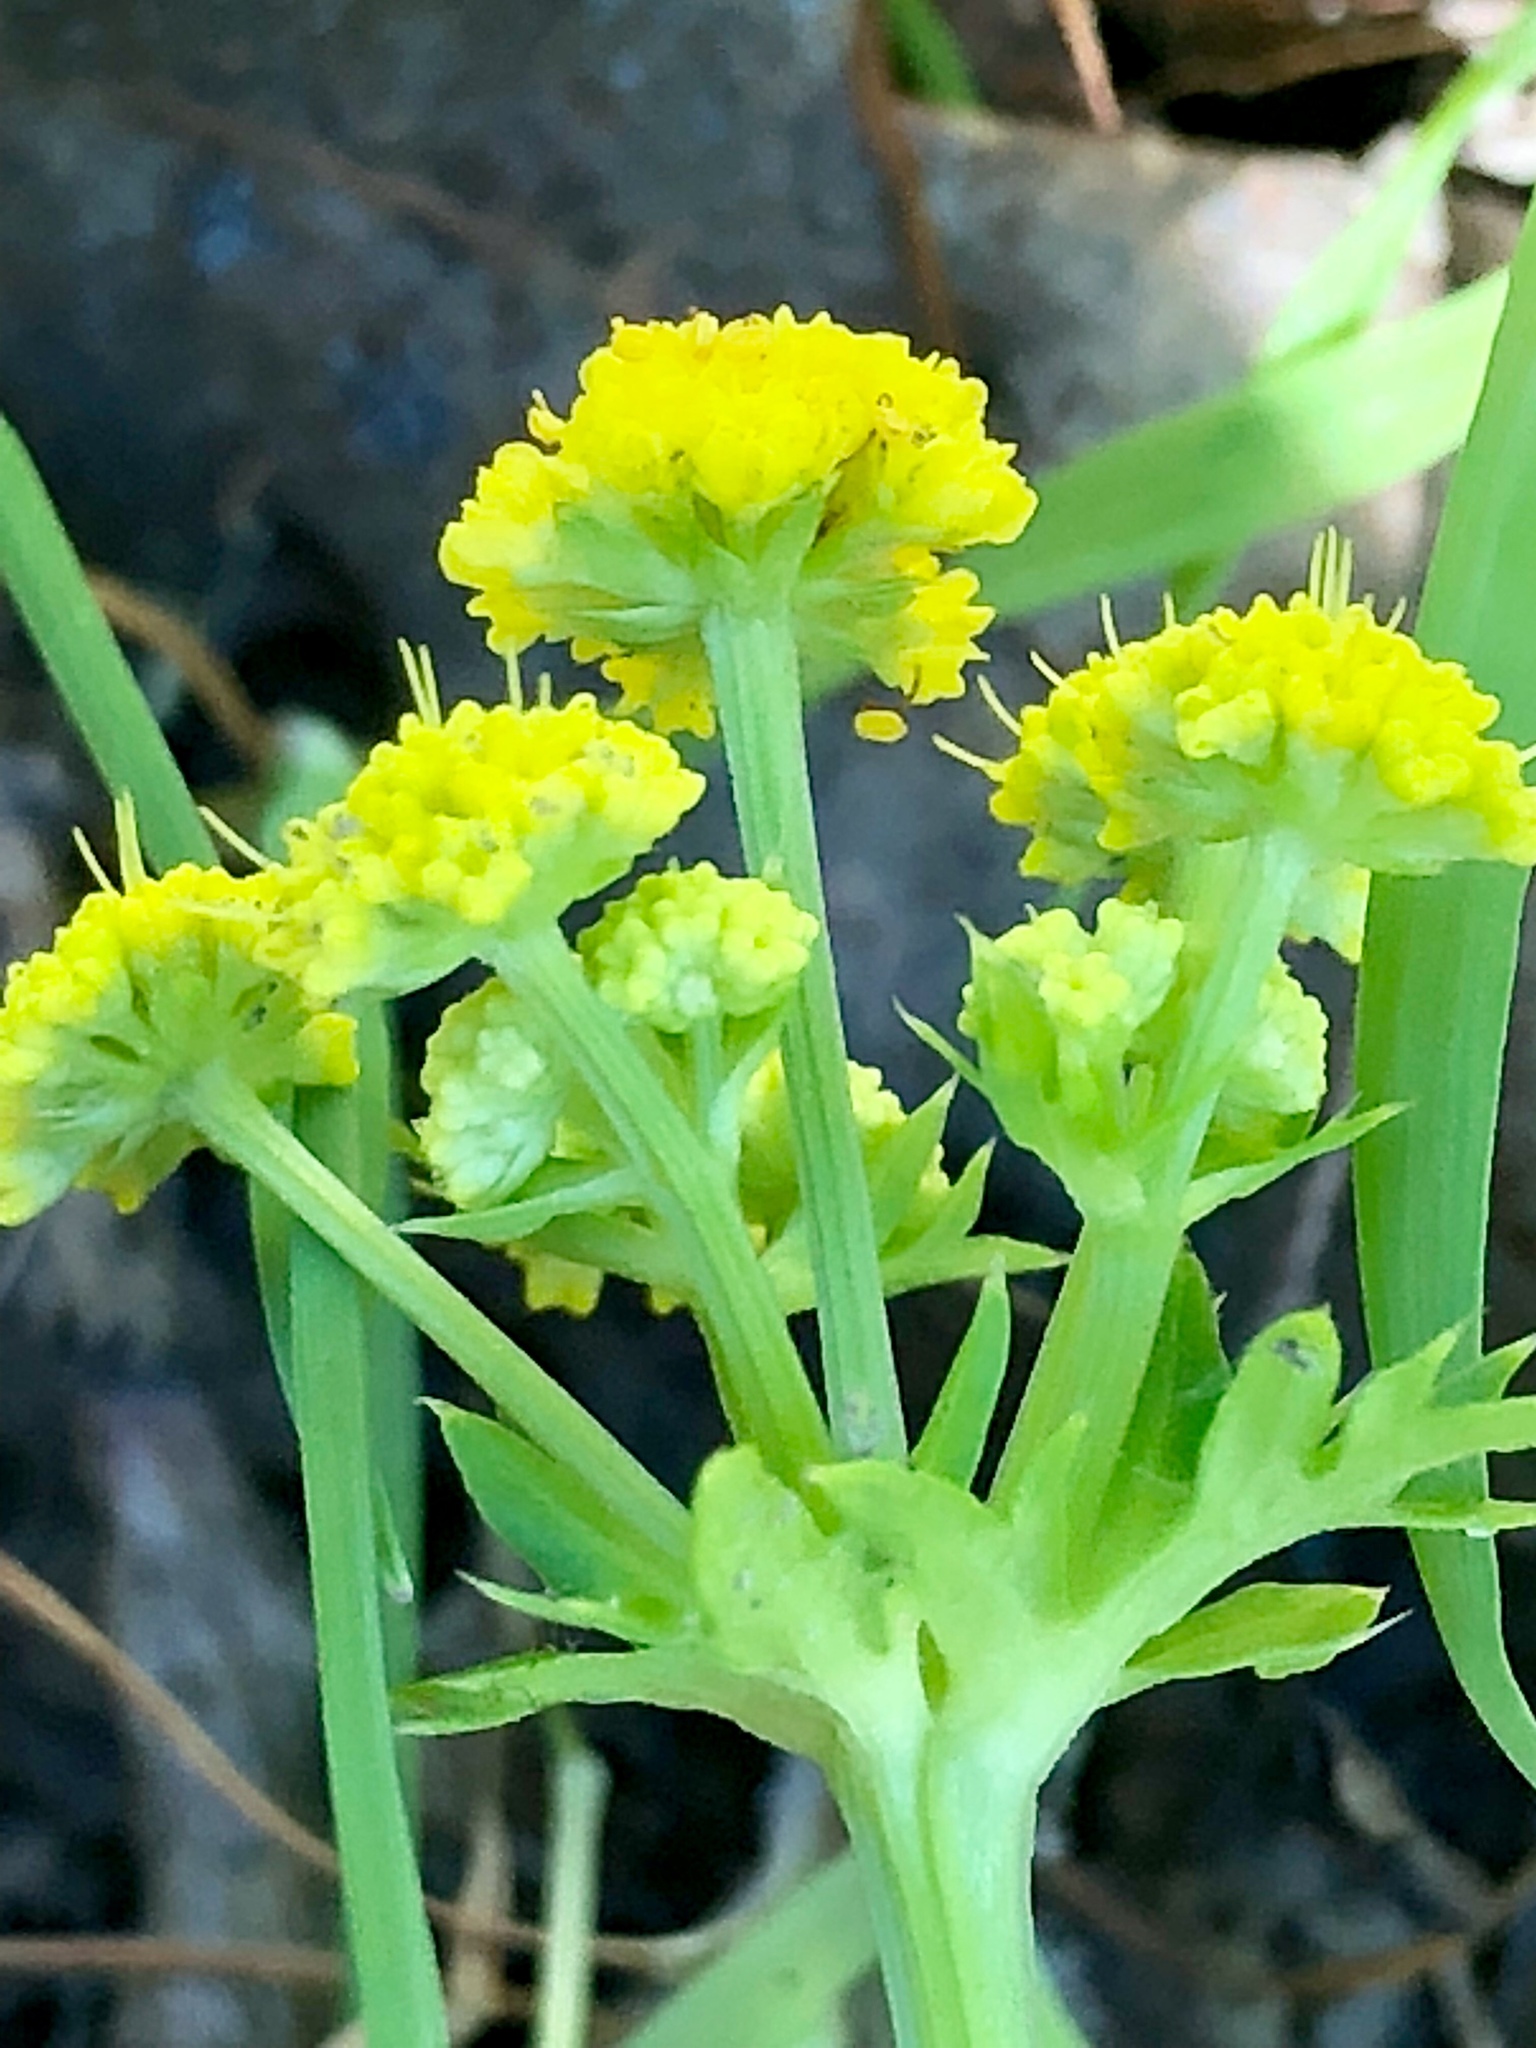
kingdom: Plantae
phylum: Tracheophyta
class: Magnoliopsida
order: Apiales
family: Apiaceae
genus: Sanicula
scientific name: Sanicula laciniata
